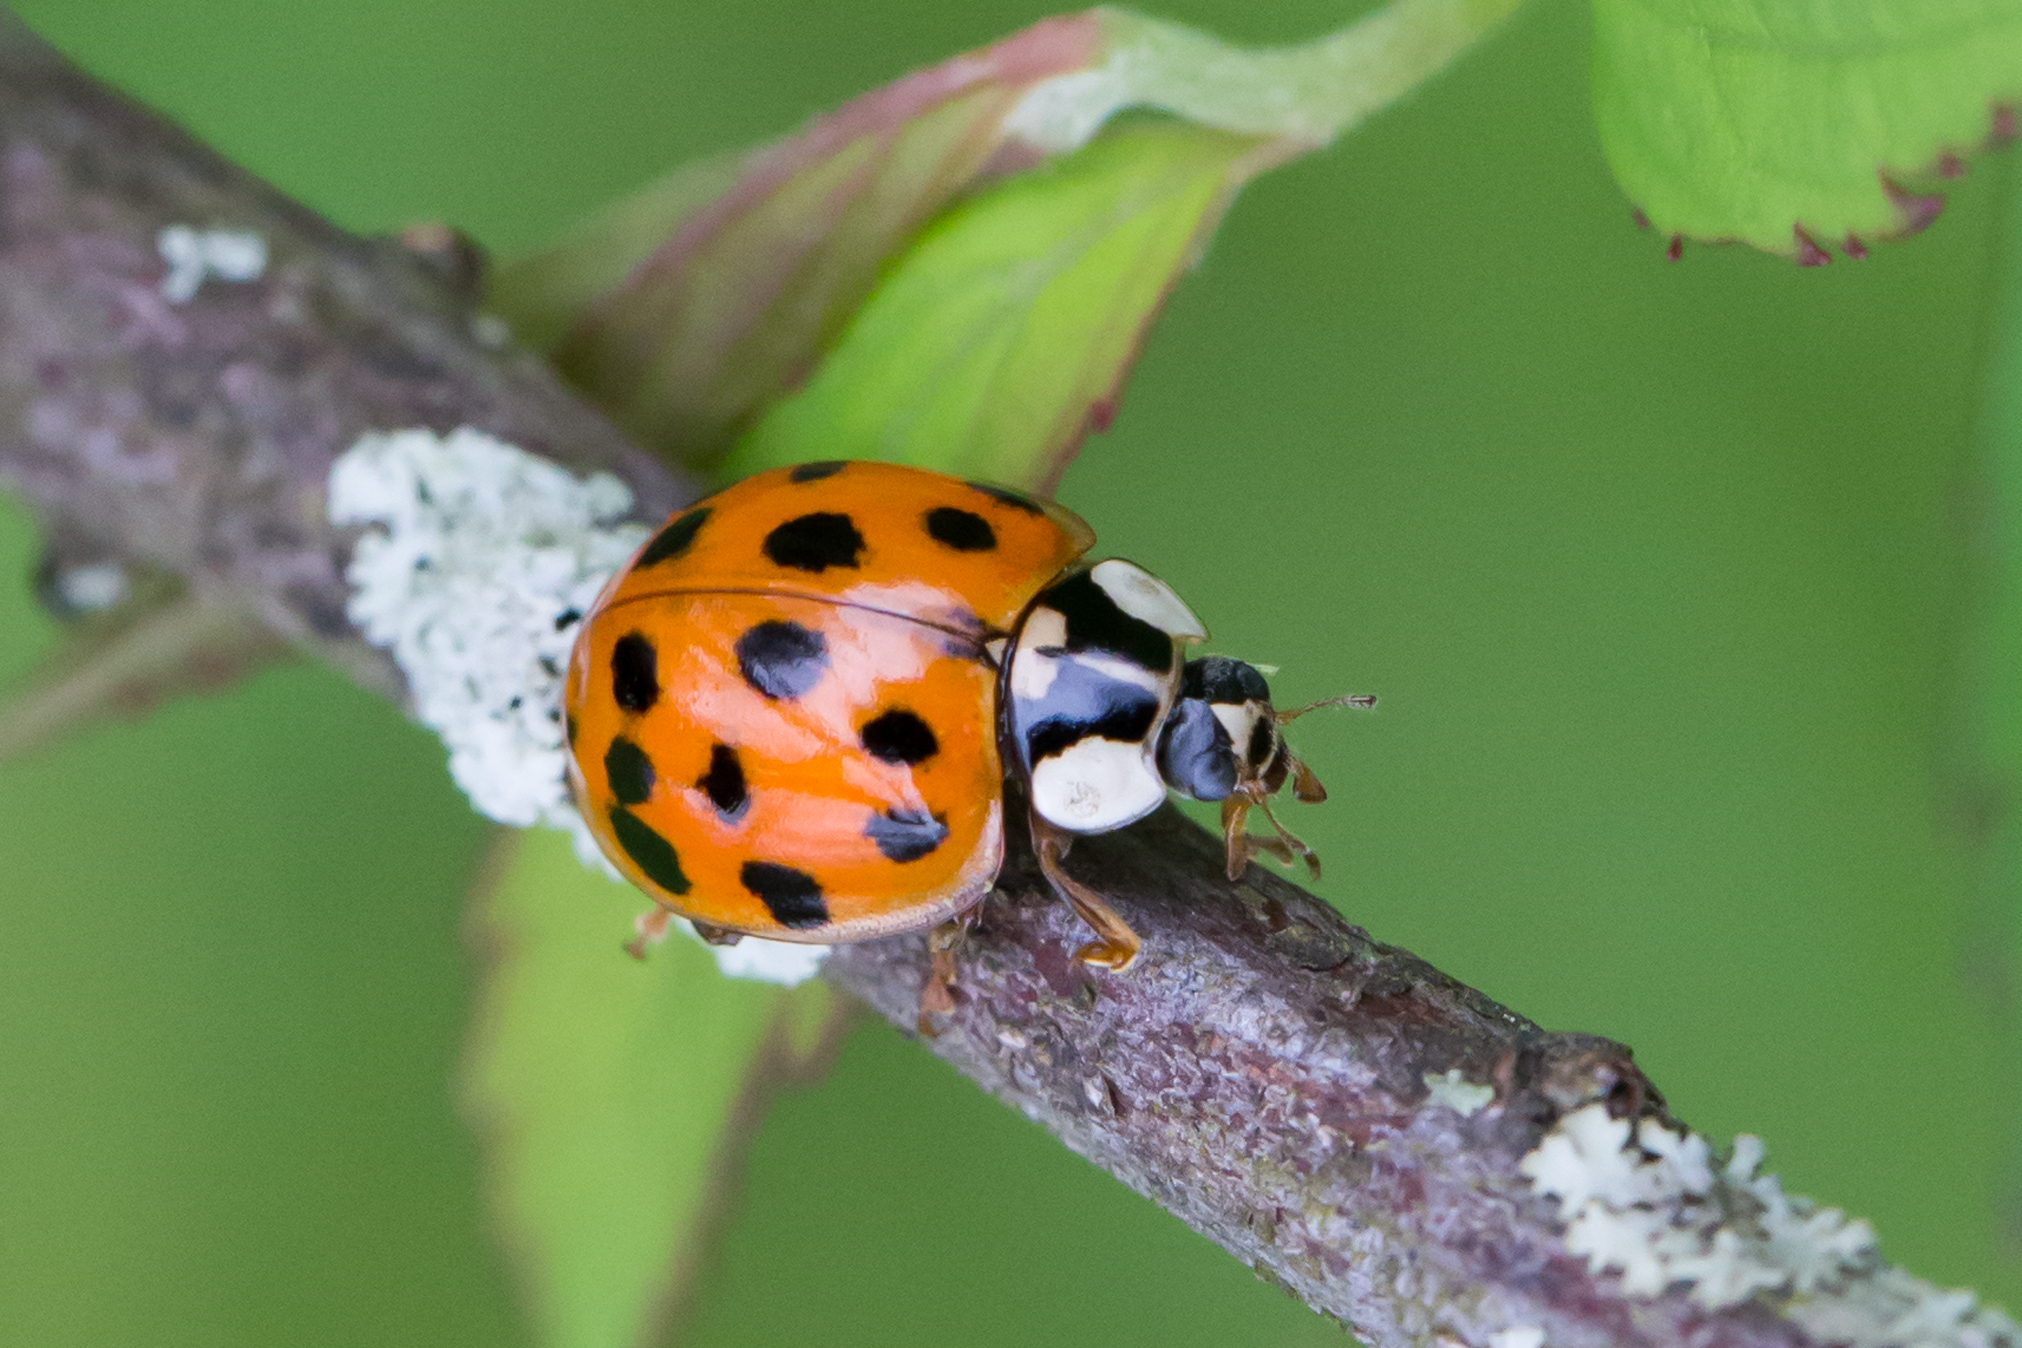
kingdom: Animalia
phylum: Arthropoda
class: Insecta
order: Coleoptera
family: Coccinellidae
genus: Harmonia
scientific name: Harmonia axyridis
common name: Harlequin ladybird
